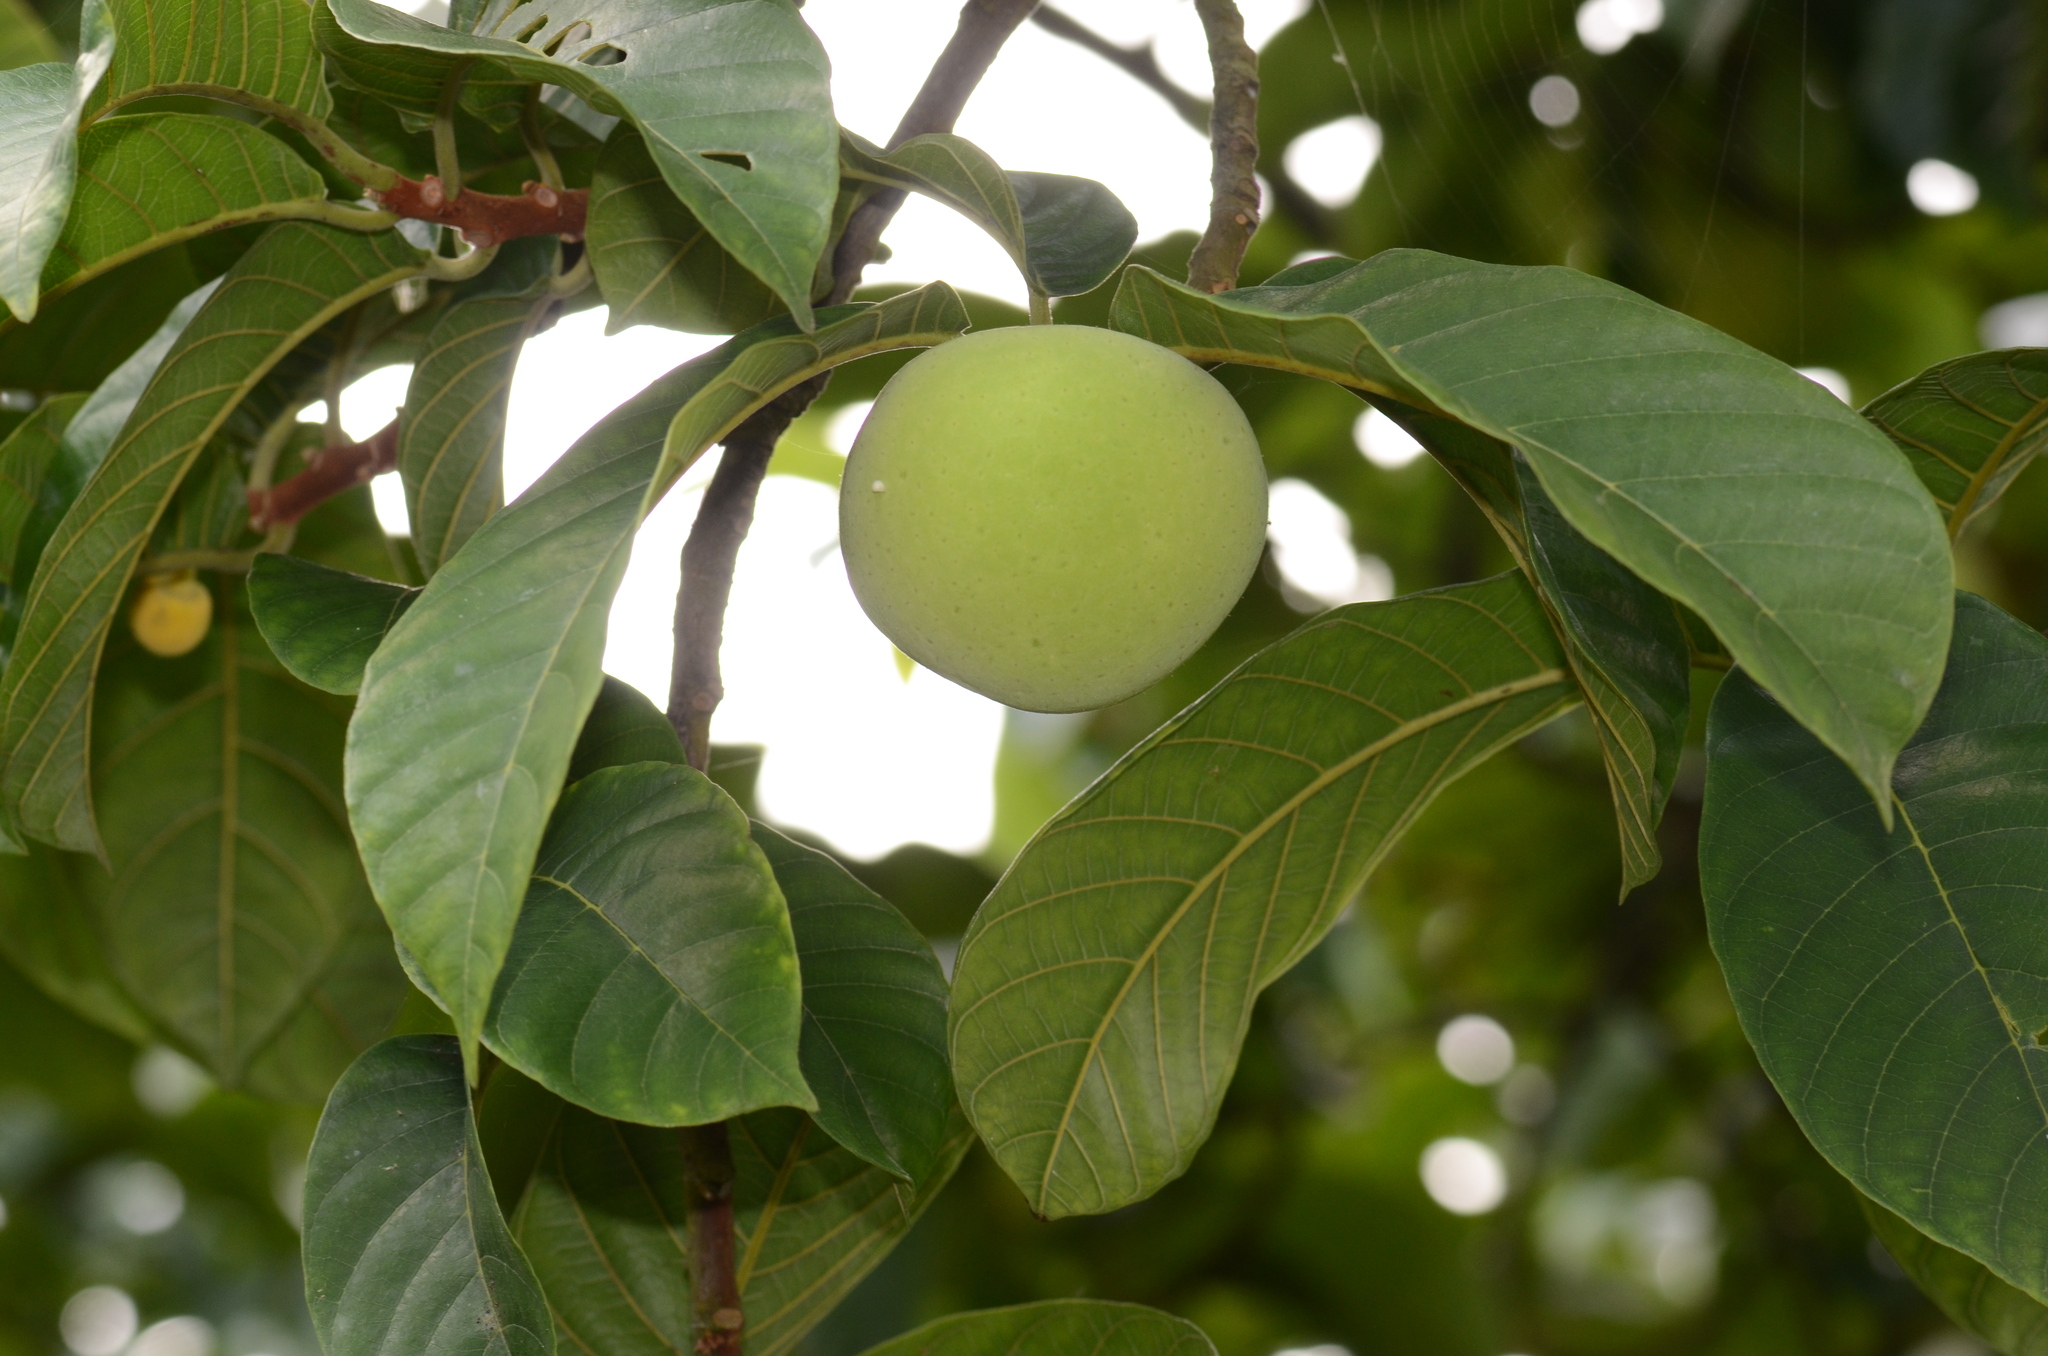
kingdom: Plantae
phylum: Tracheophyta
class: Magnoliopsida
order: Rosales
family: Moraceae
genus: Artocarpus
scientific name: Artocarpus lacucha
